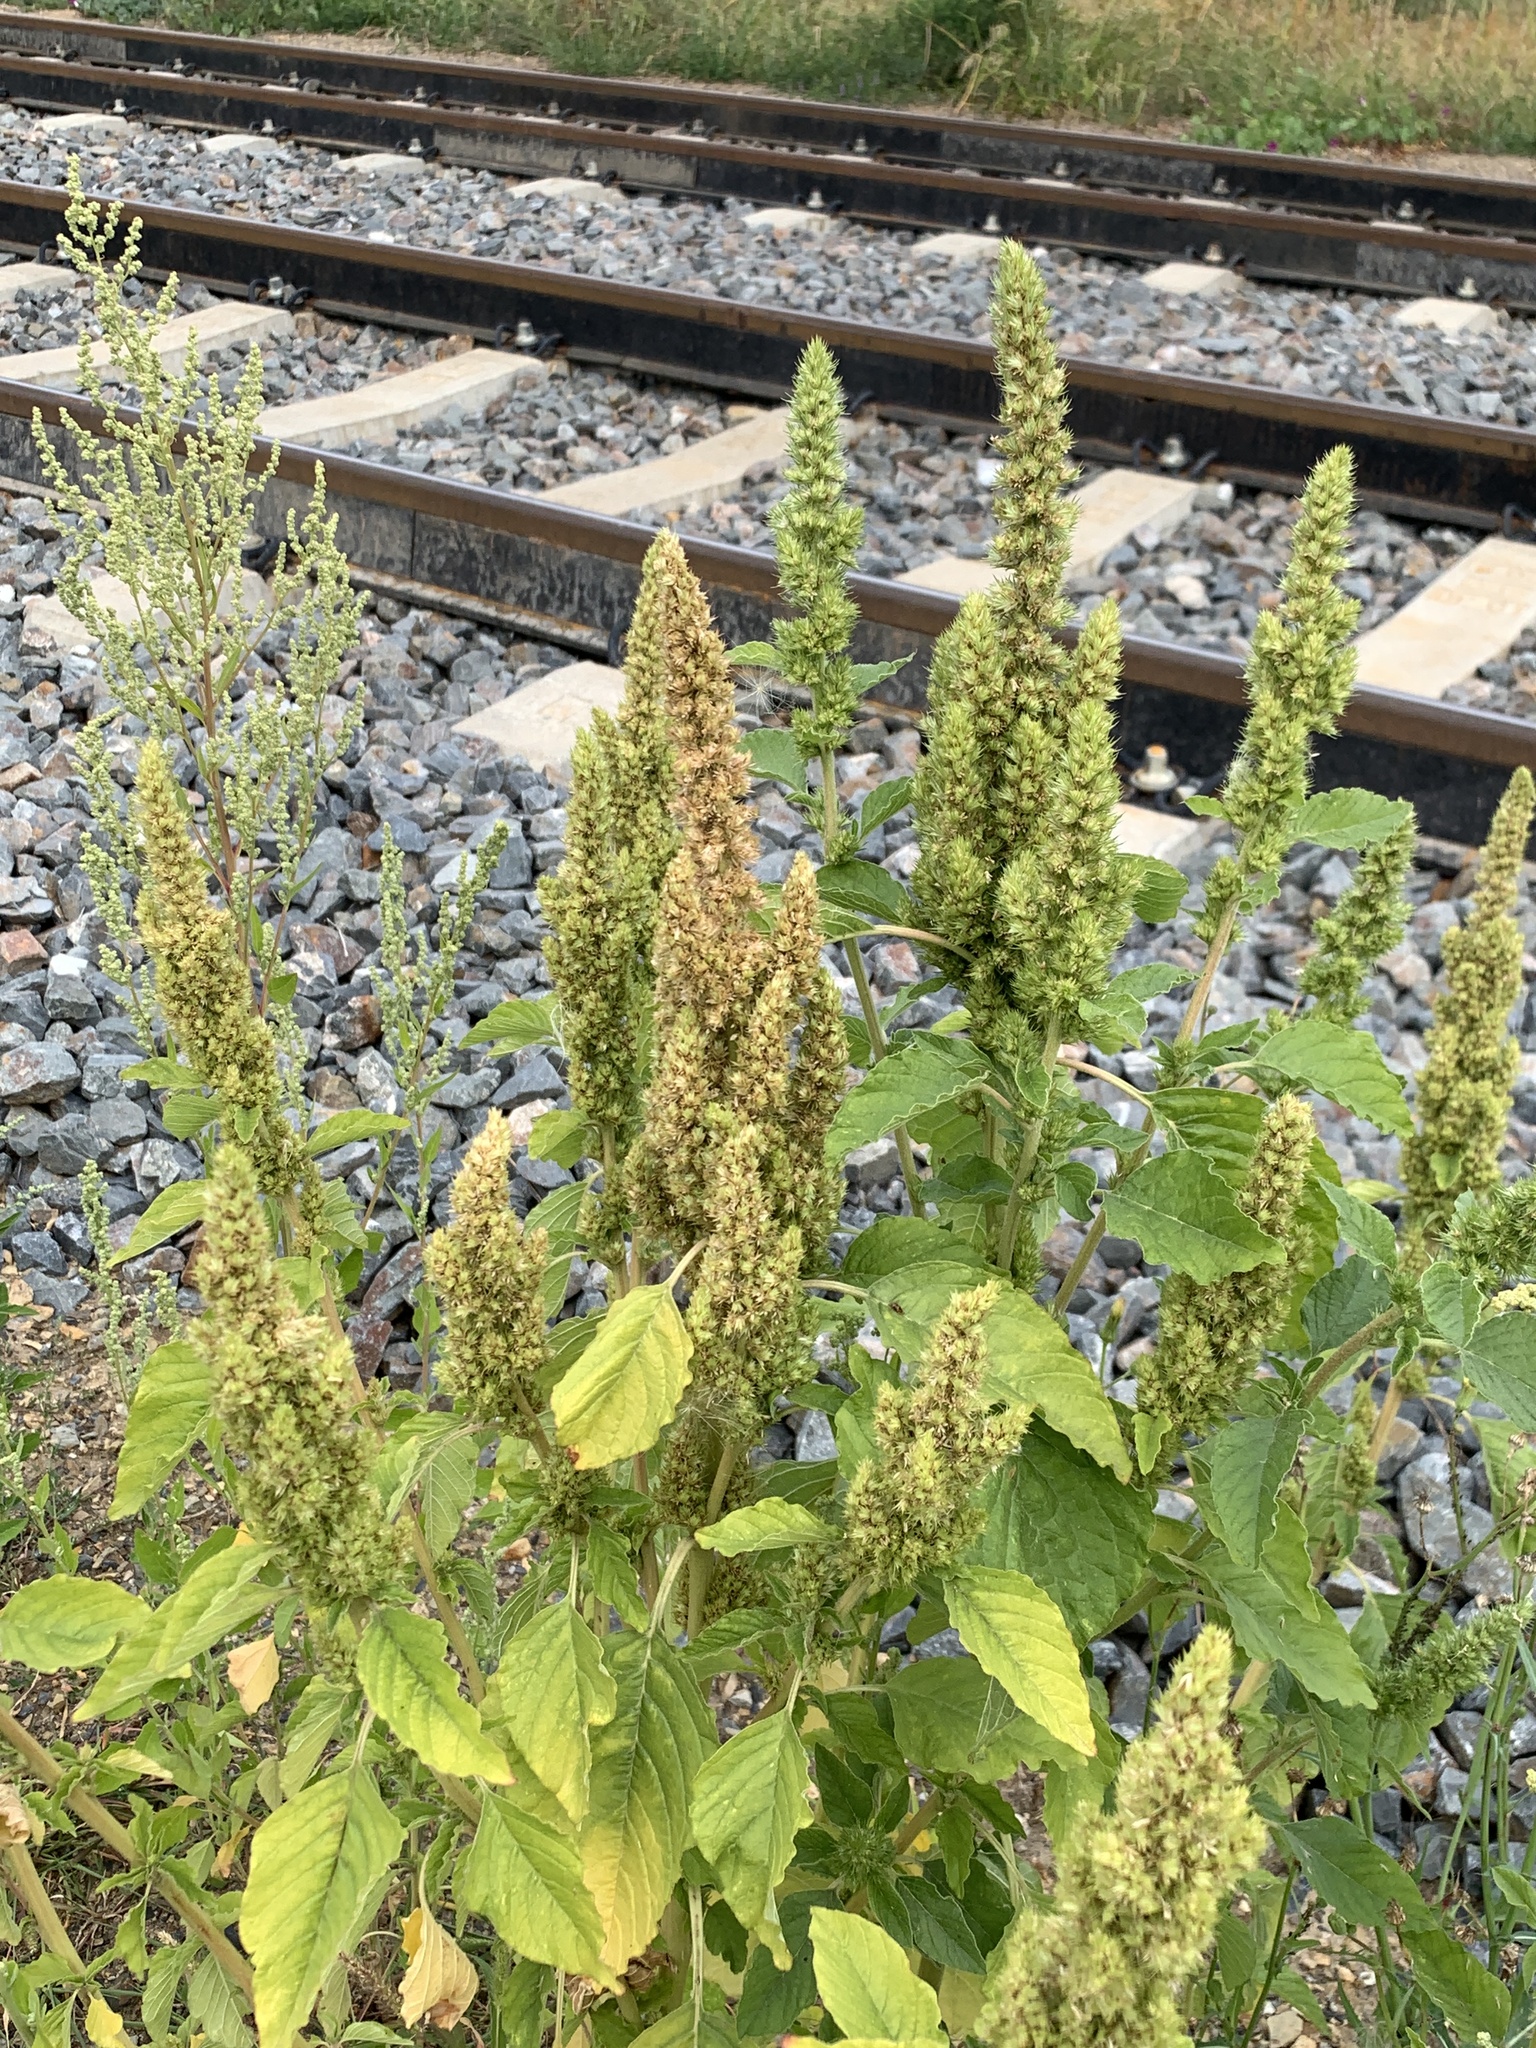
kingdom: Plantae
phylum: Tracheophyta
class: Magnoliopsida
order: Caryophyllales
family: Amaranthaceae
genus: Amaranthus
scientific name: Amaranthus retroflexus
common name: Redroot amaranth
